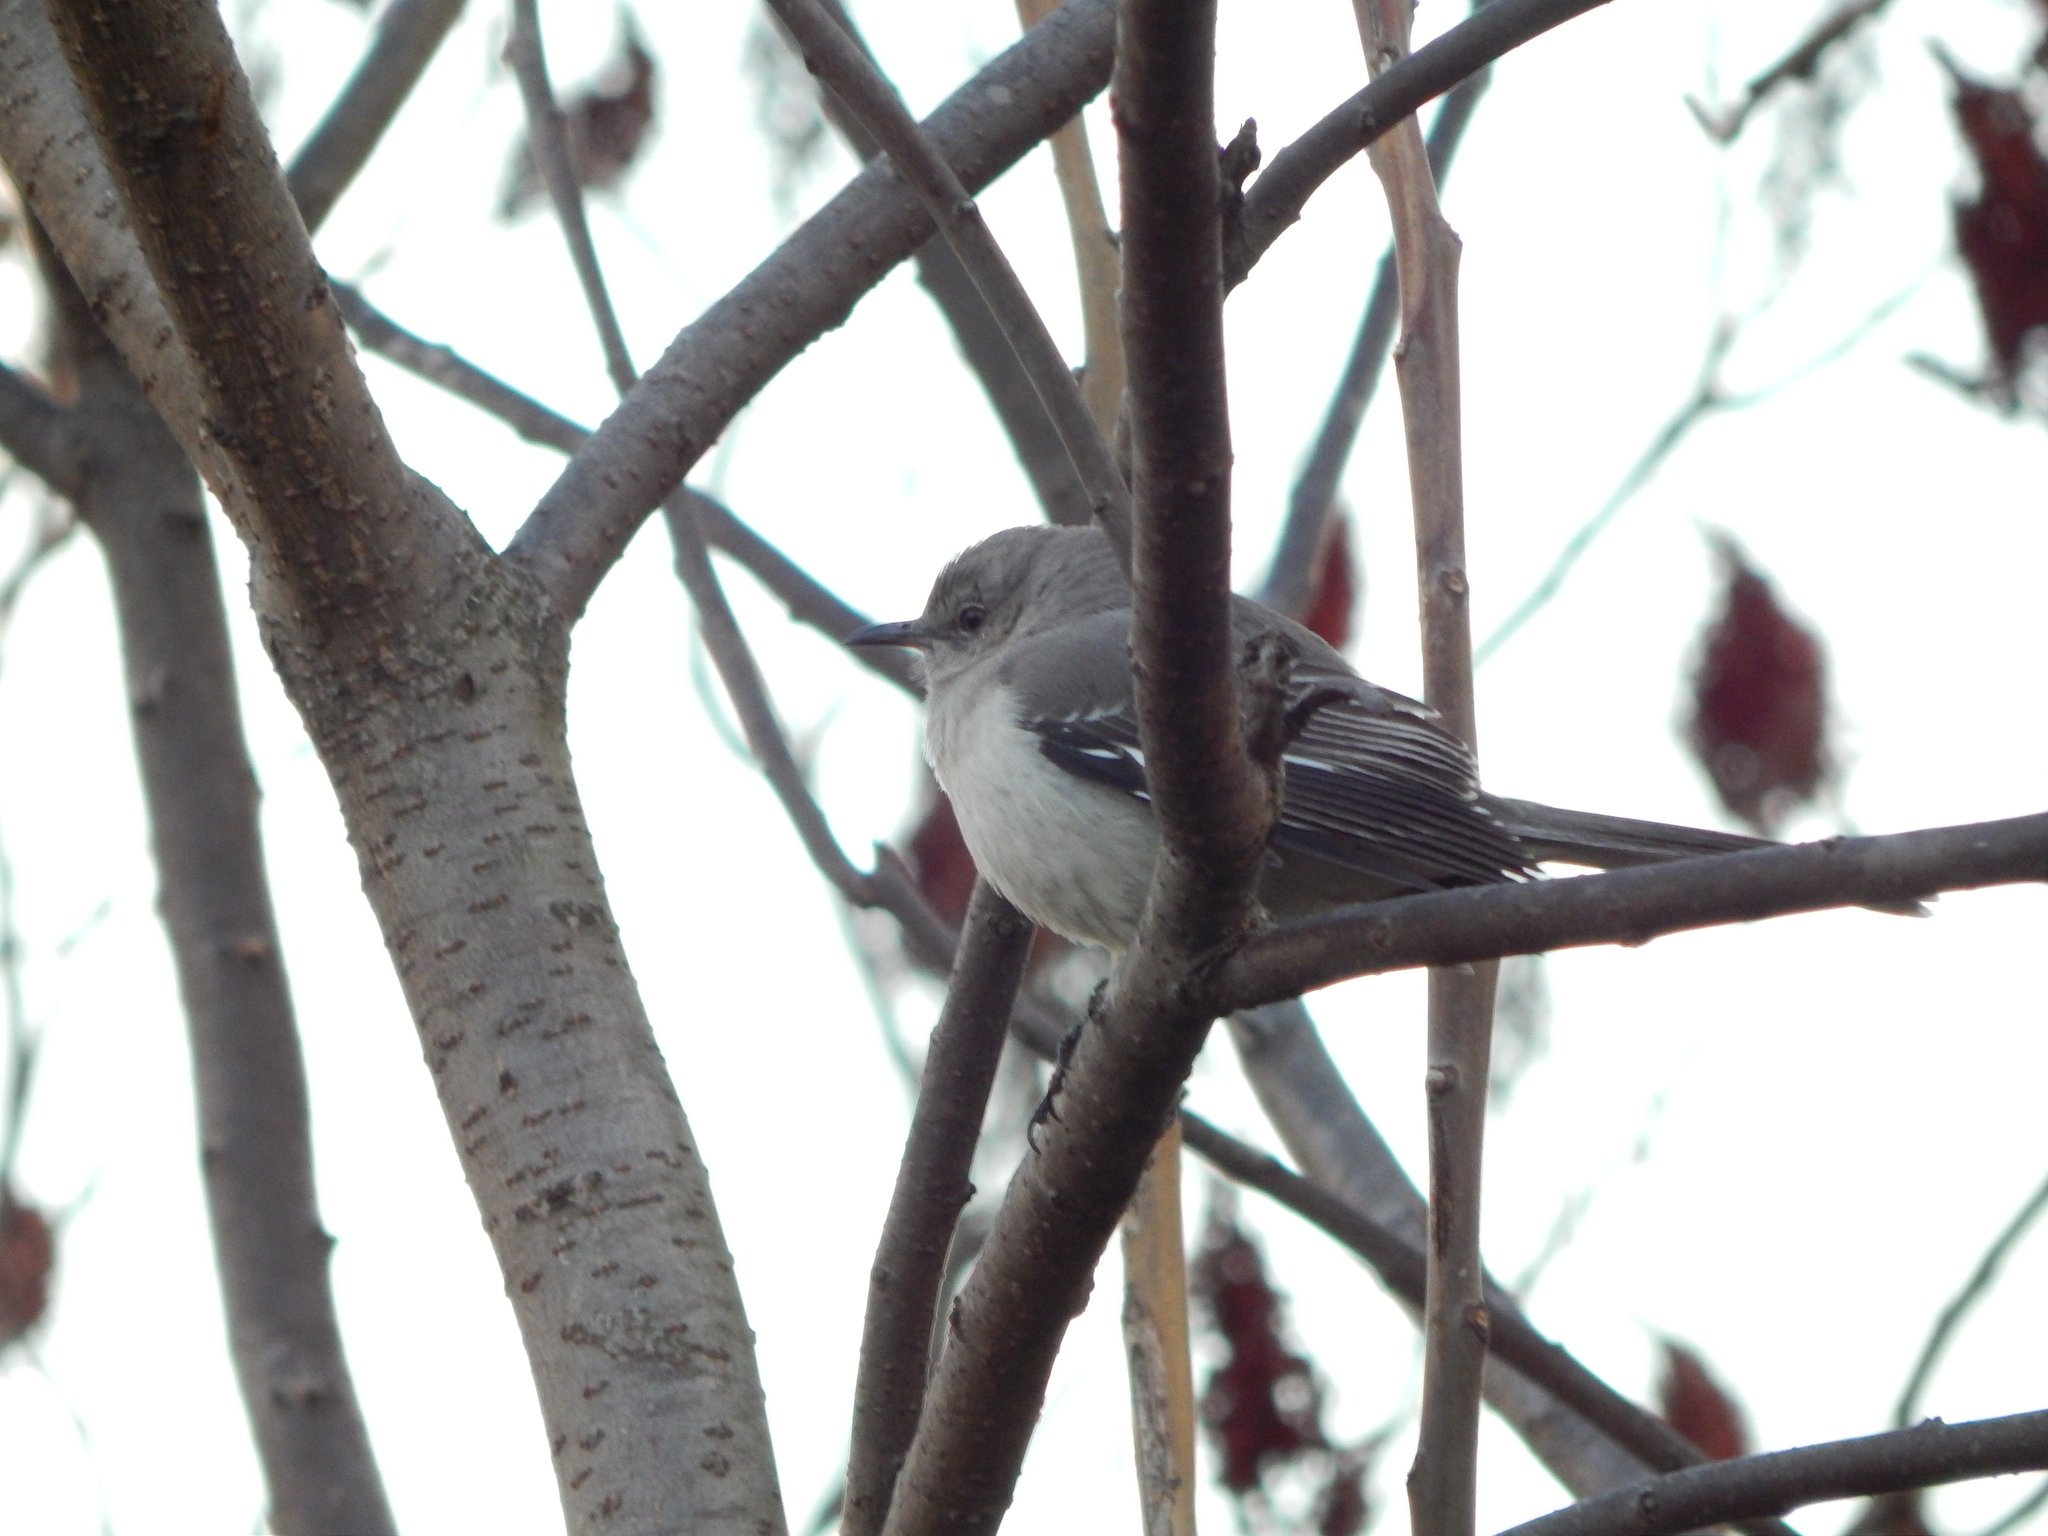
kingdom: Animalia
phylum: Chordata
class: Aves
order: Passeriformes
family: Mimidae
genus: Mimus
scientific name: Mimus polyglottos
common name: Northern mockingbird
